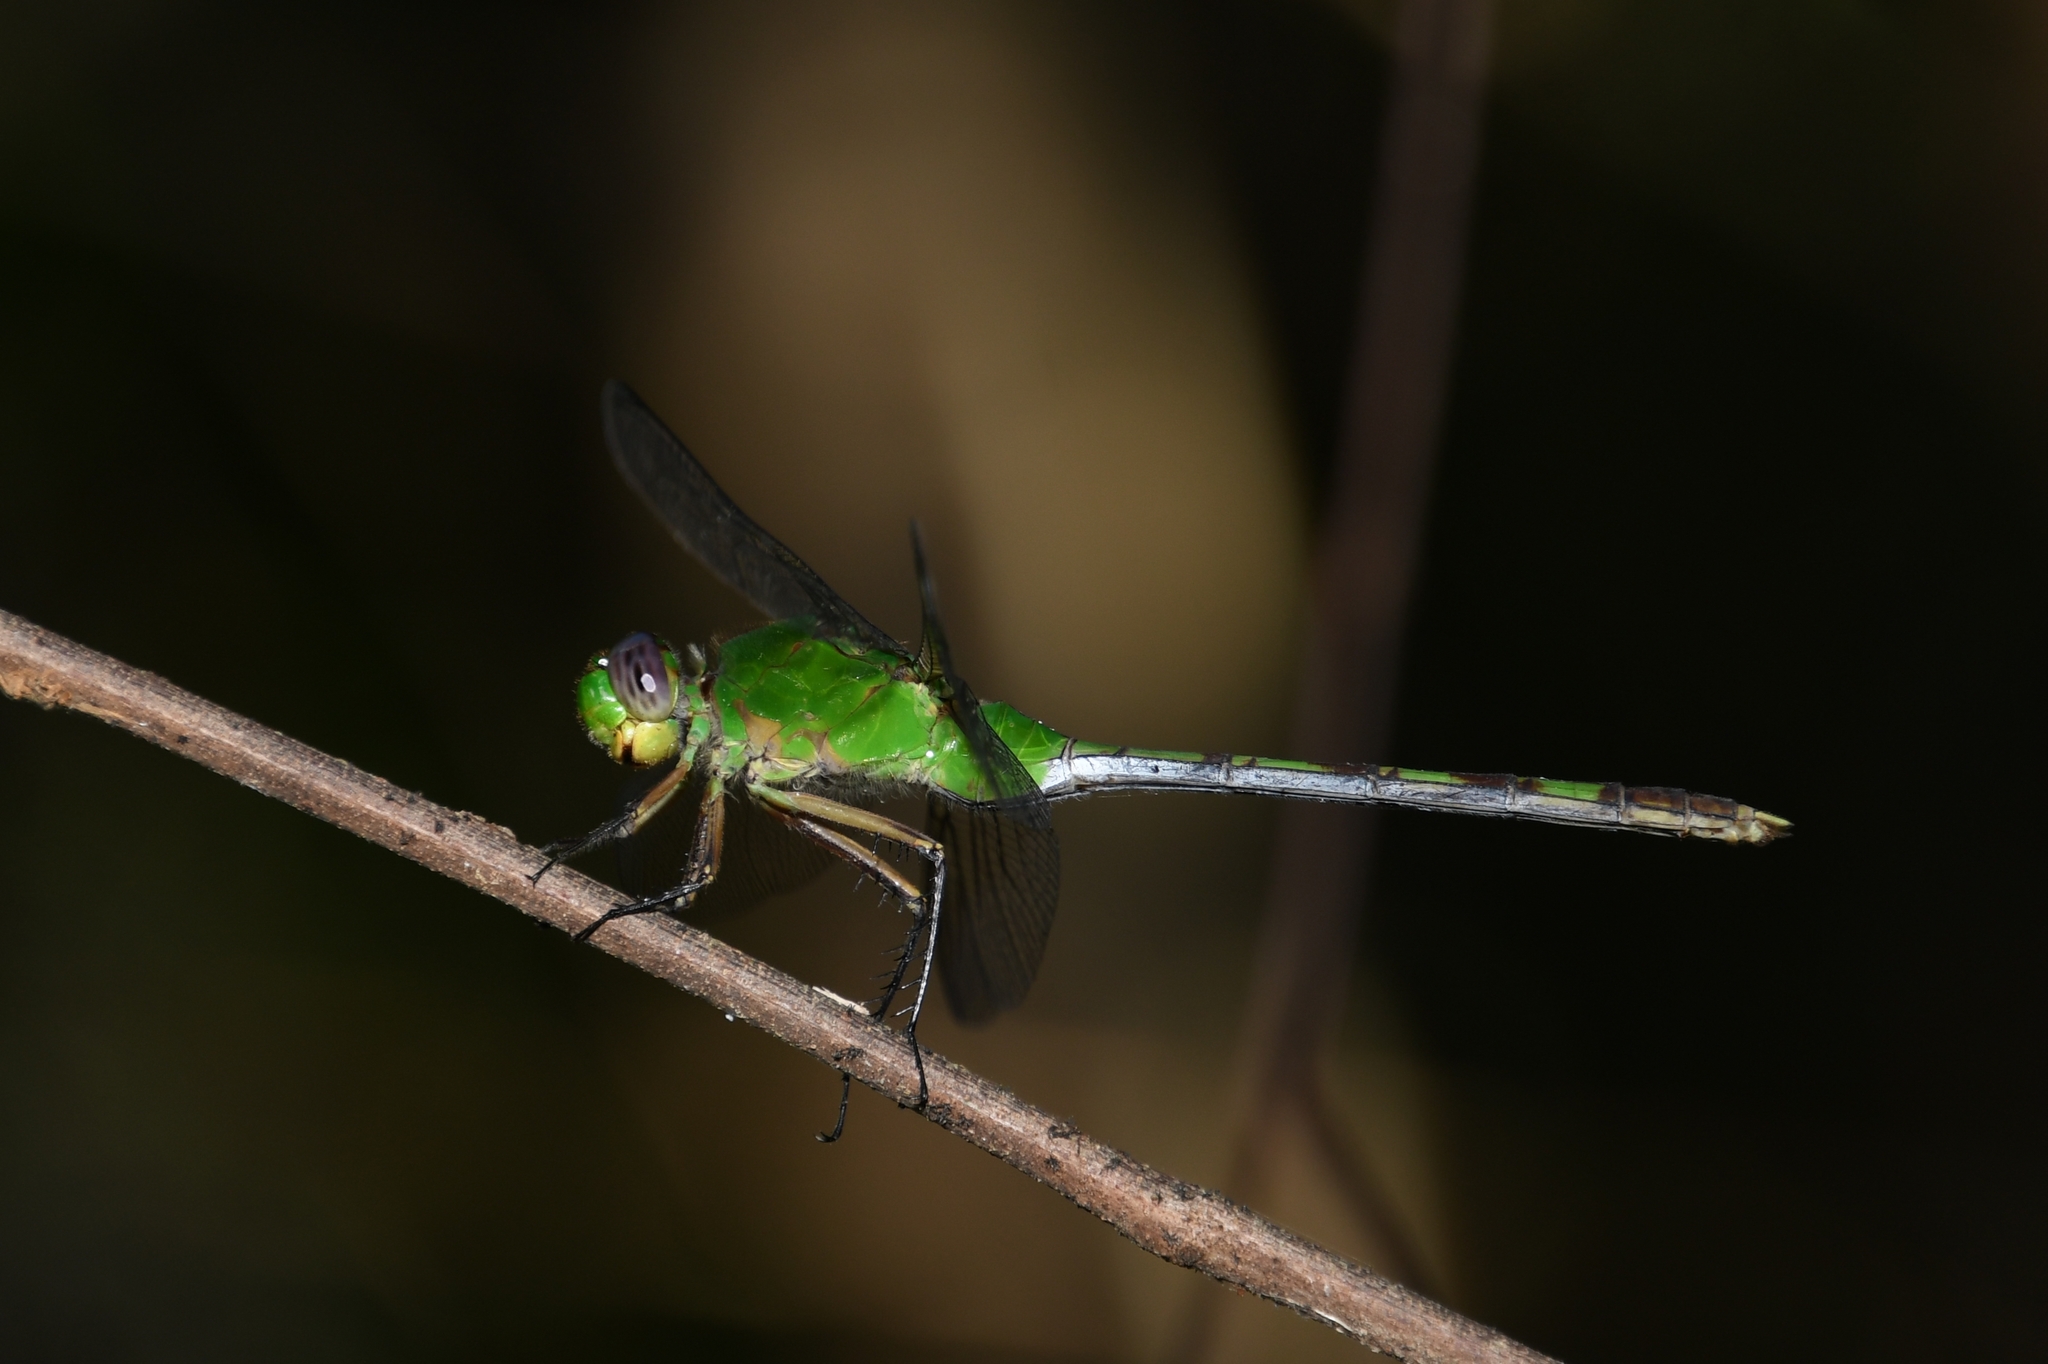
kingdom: Animalia
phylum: Arthropoda
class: Insecta
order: Odonata
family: Libellulidae
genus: Erythemis
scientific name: Erythemis vesiculosa
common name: Great pondhawk
